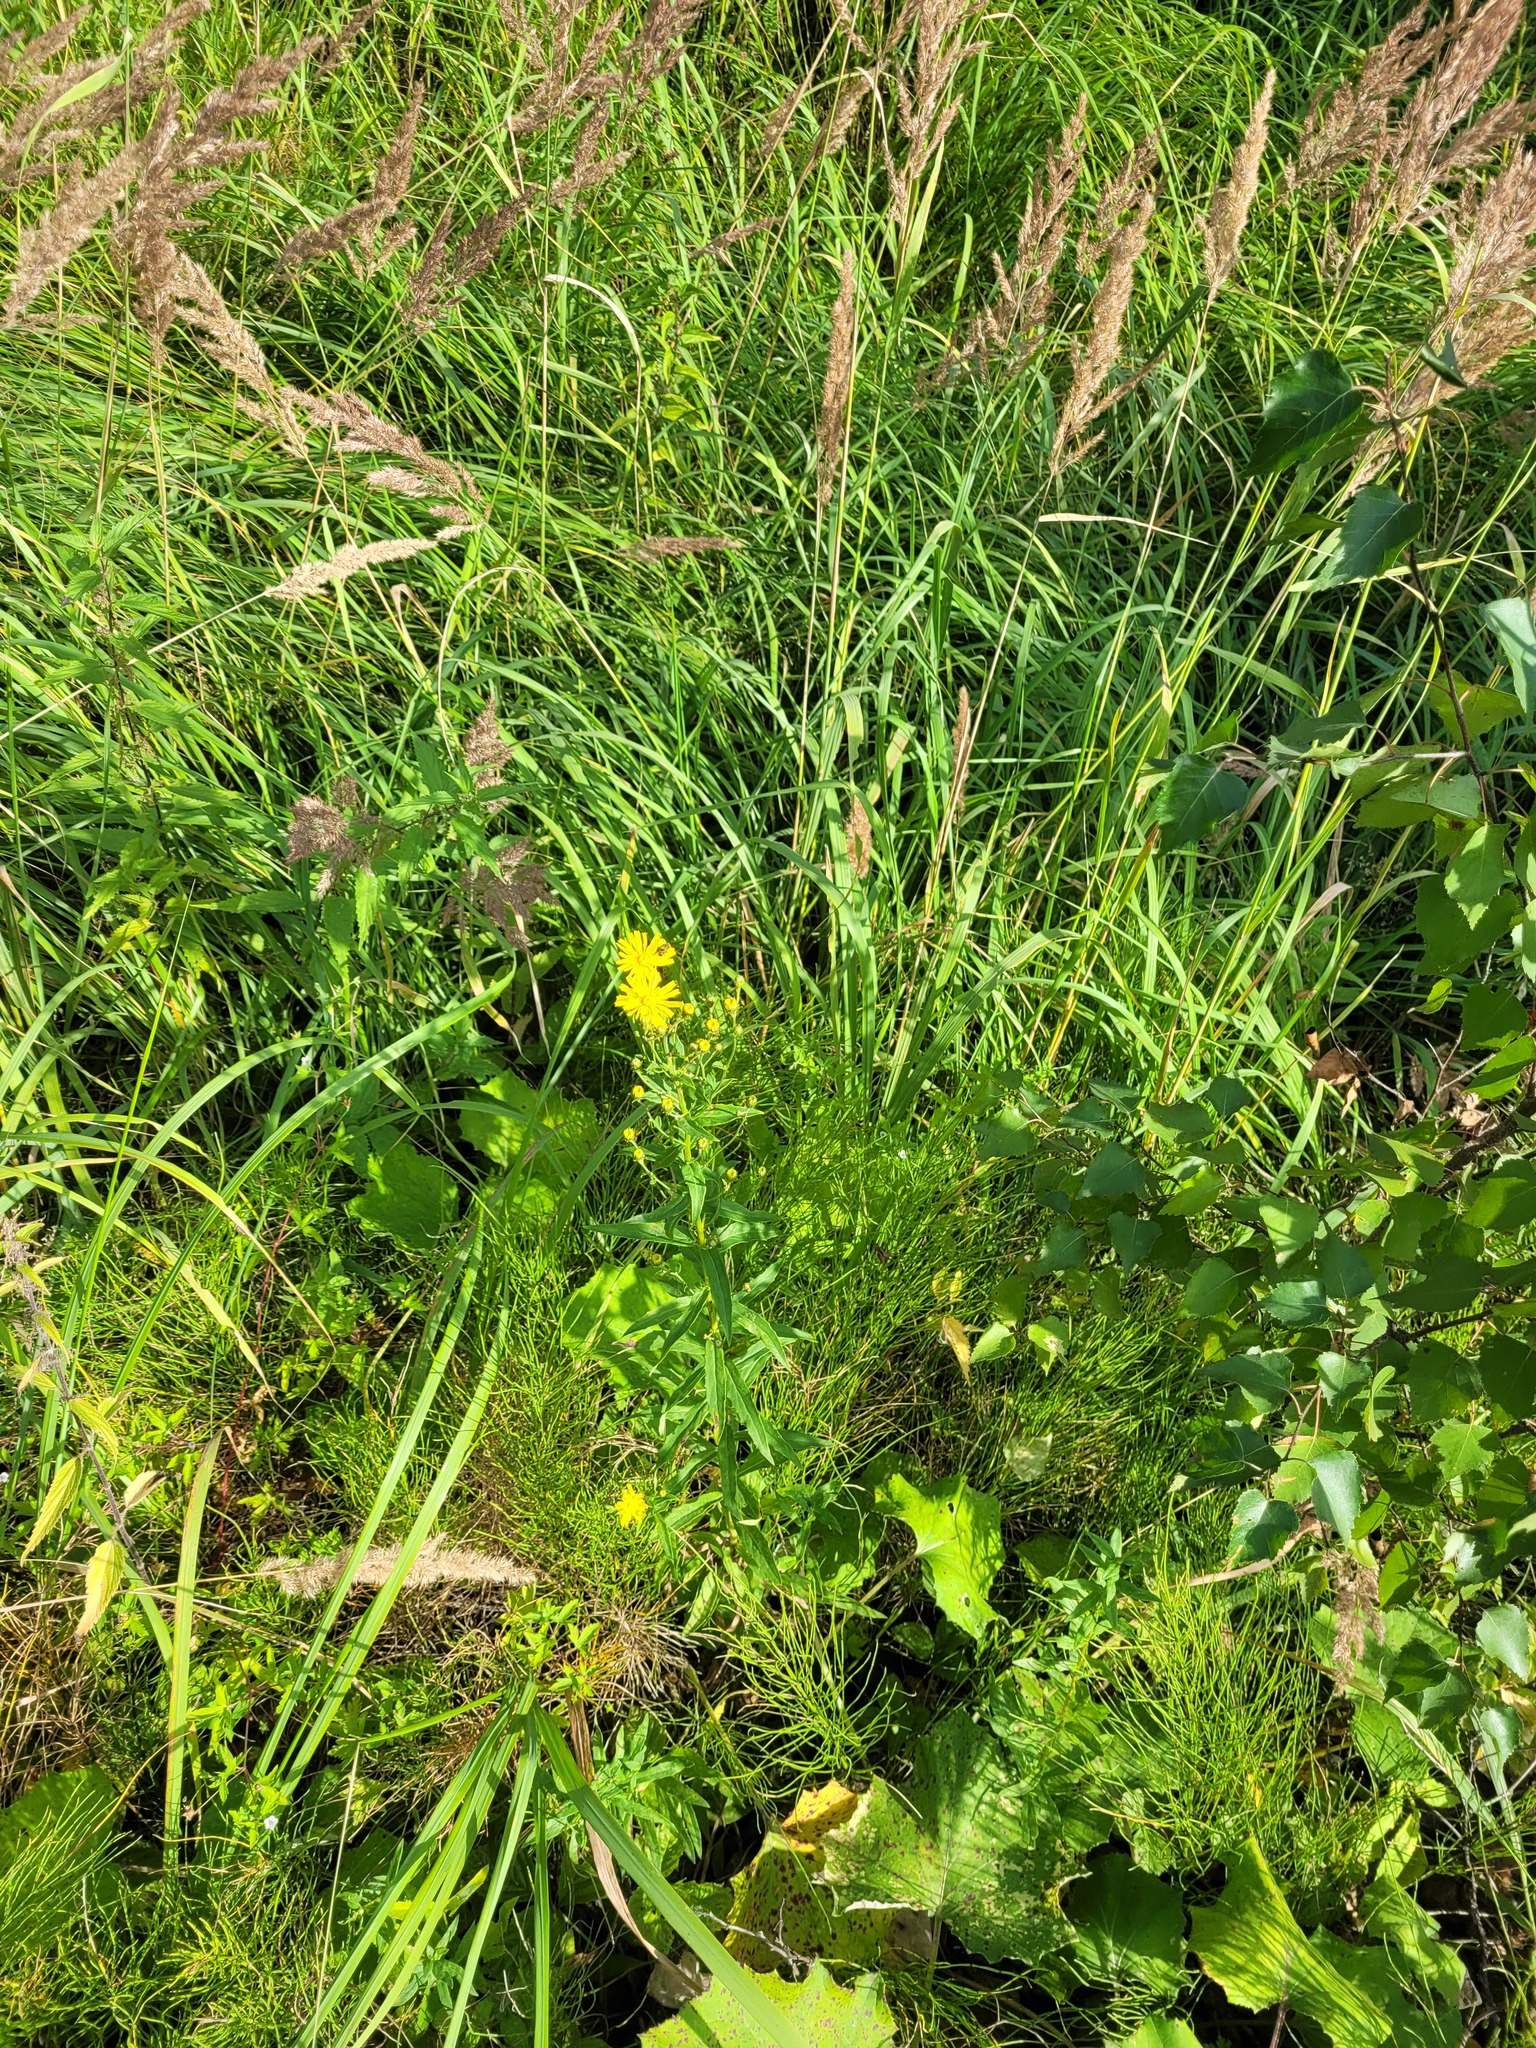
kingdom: Plantae
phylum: Tracheophyta
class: Magnoliopsida
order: Asterales
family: Asteraceae
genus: Hieracium
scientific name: Hieracium umbellatum
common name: Northern hawkweed
